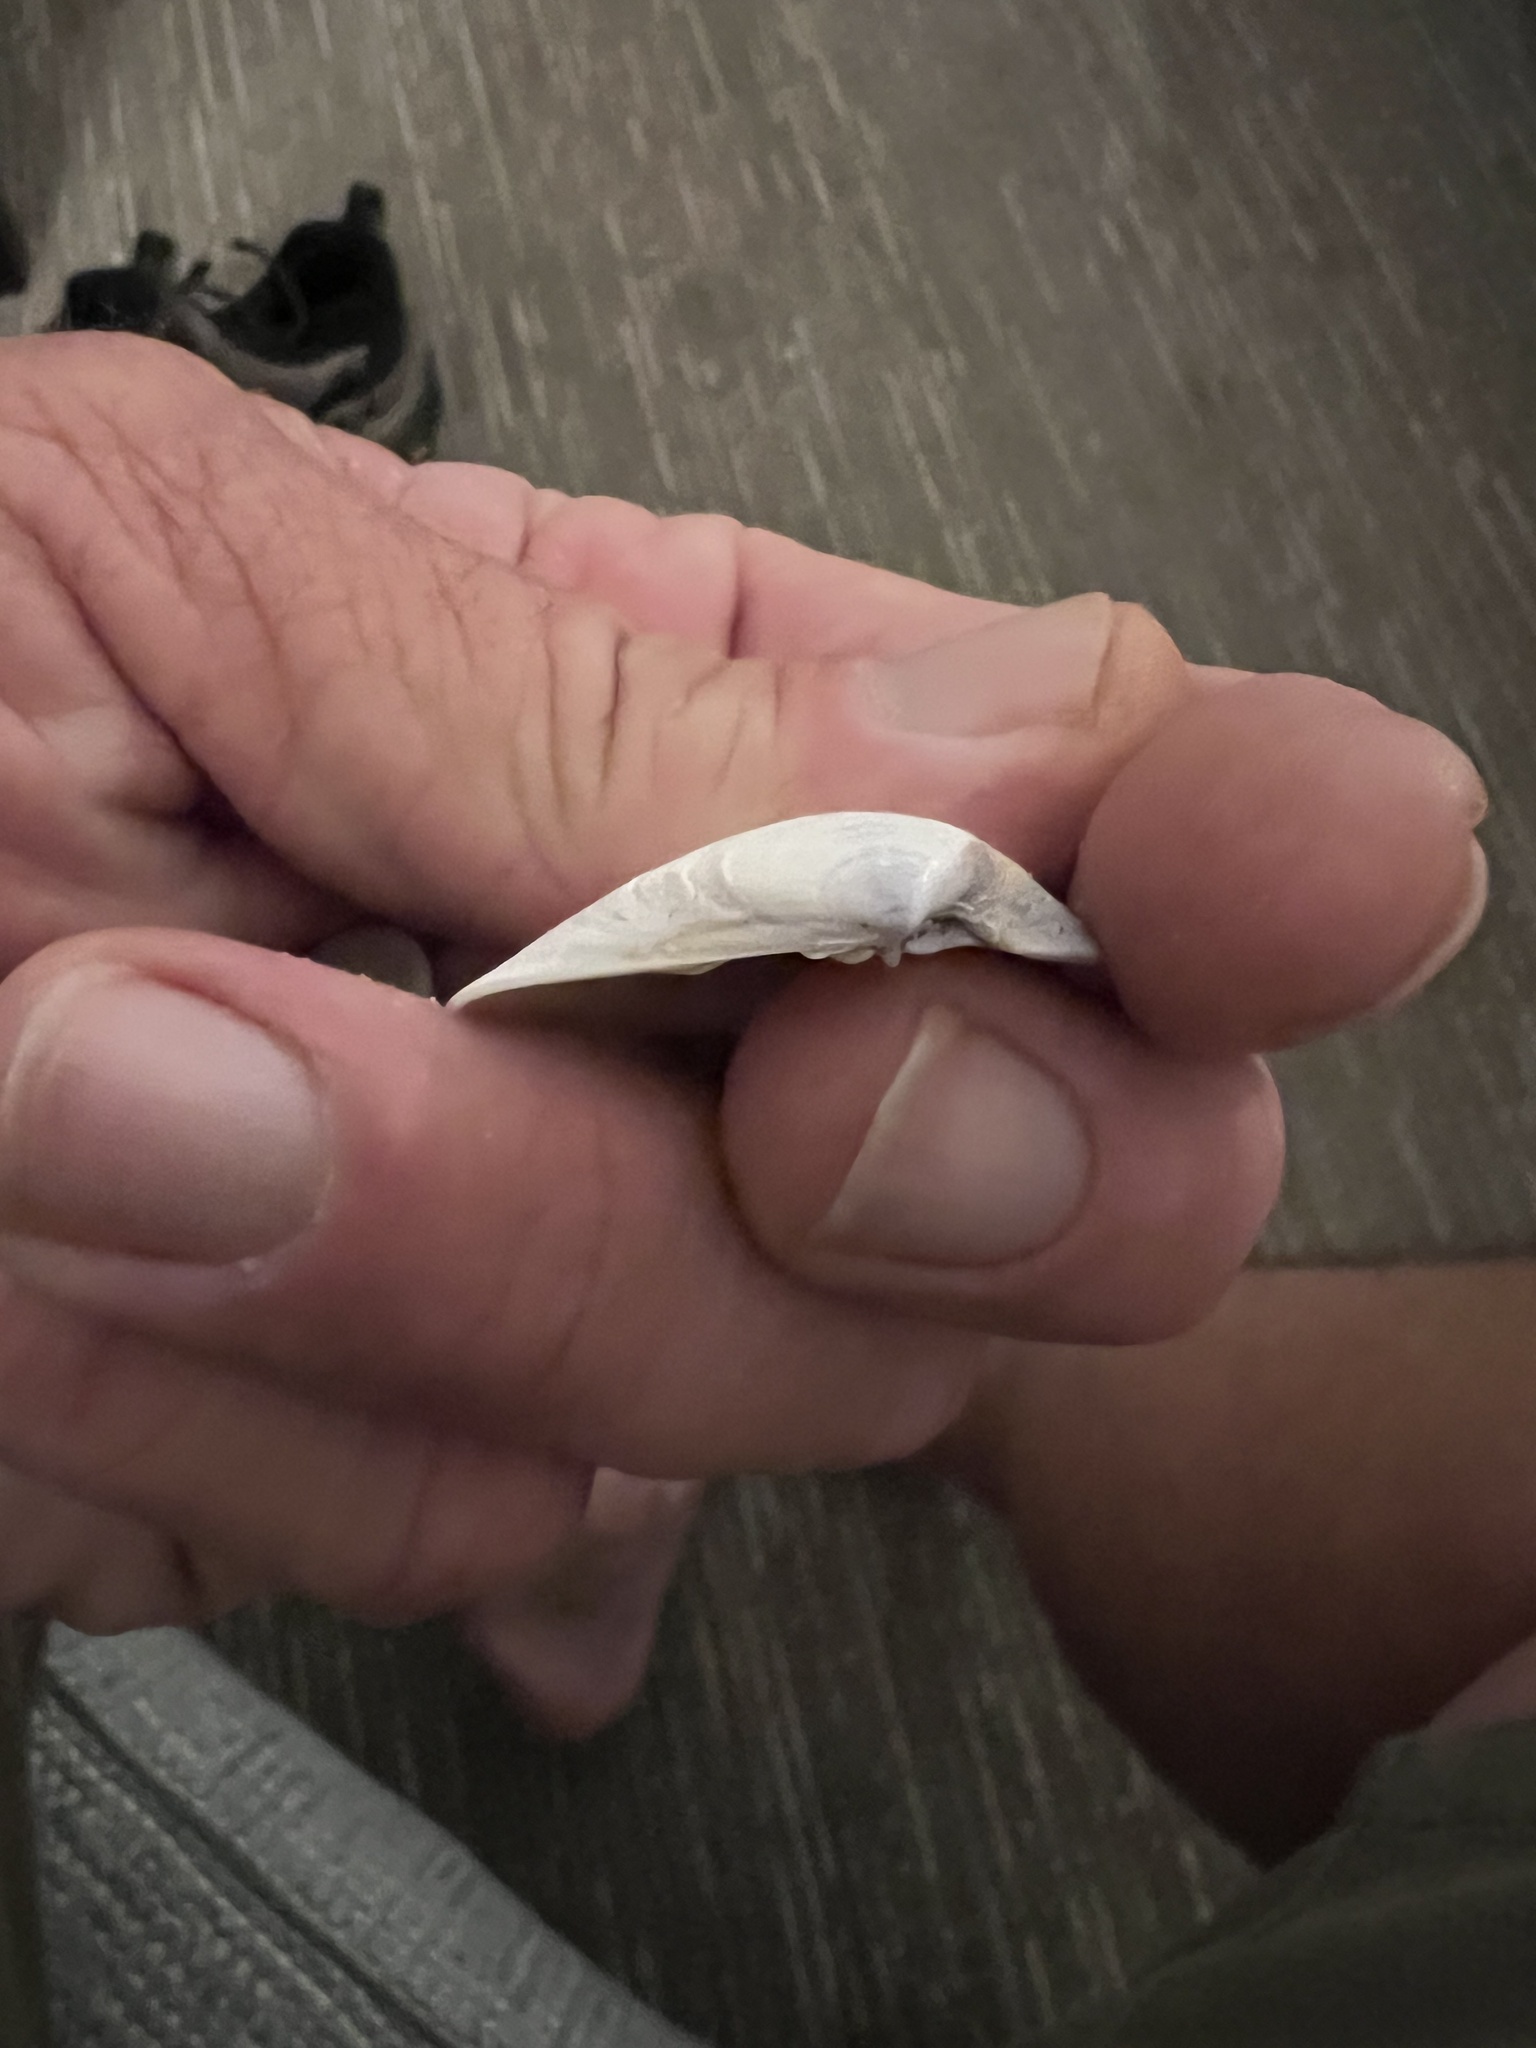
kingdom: Animalia
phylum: Mollusca
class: Bivalvia
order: Venerida
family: Veneridae
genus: Tivela
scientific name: Tivela stultorum
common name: Pismo clam
